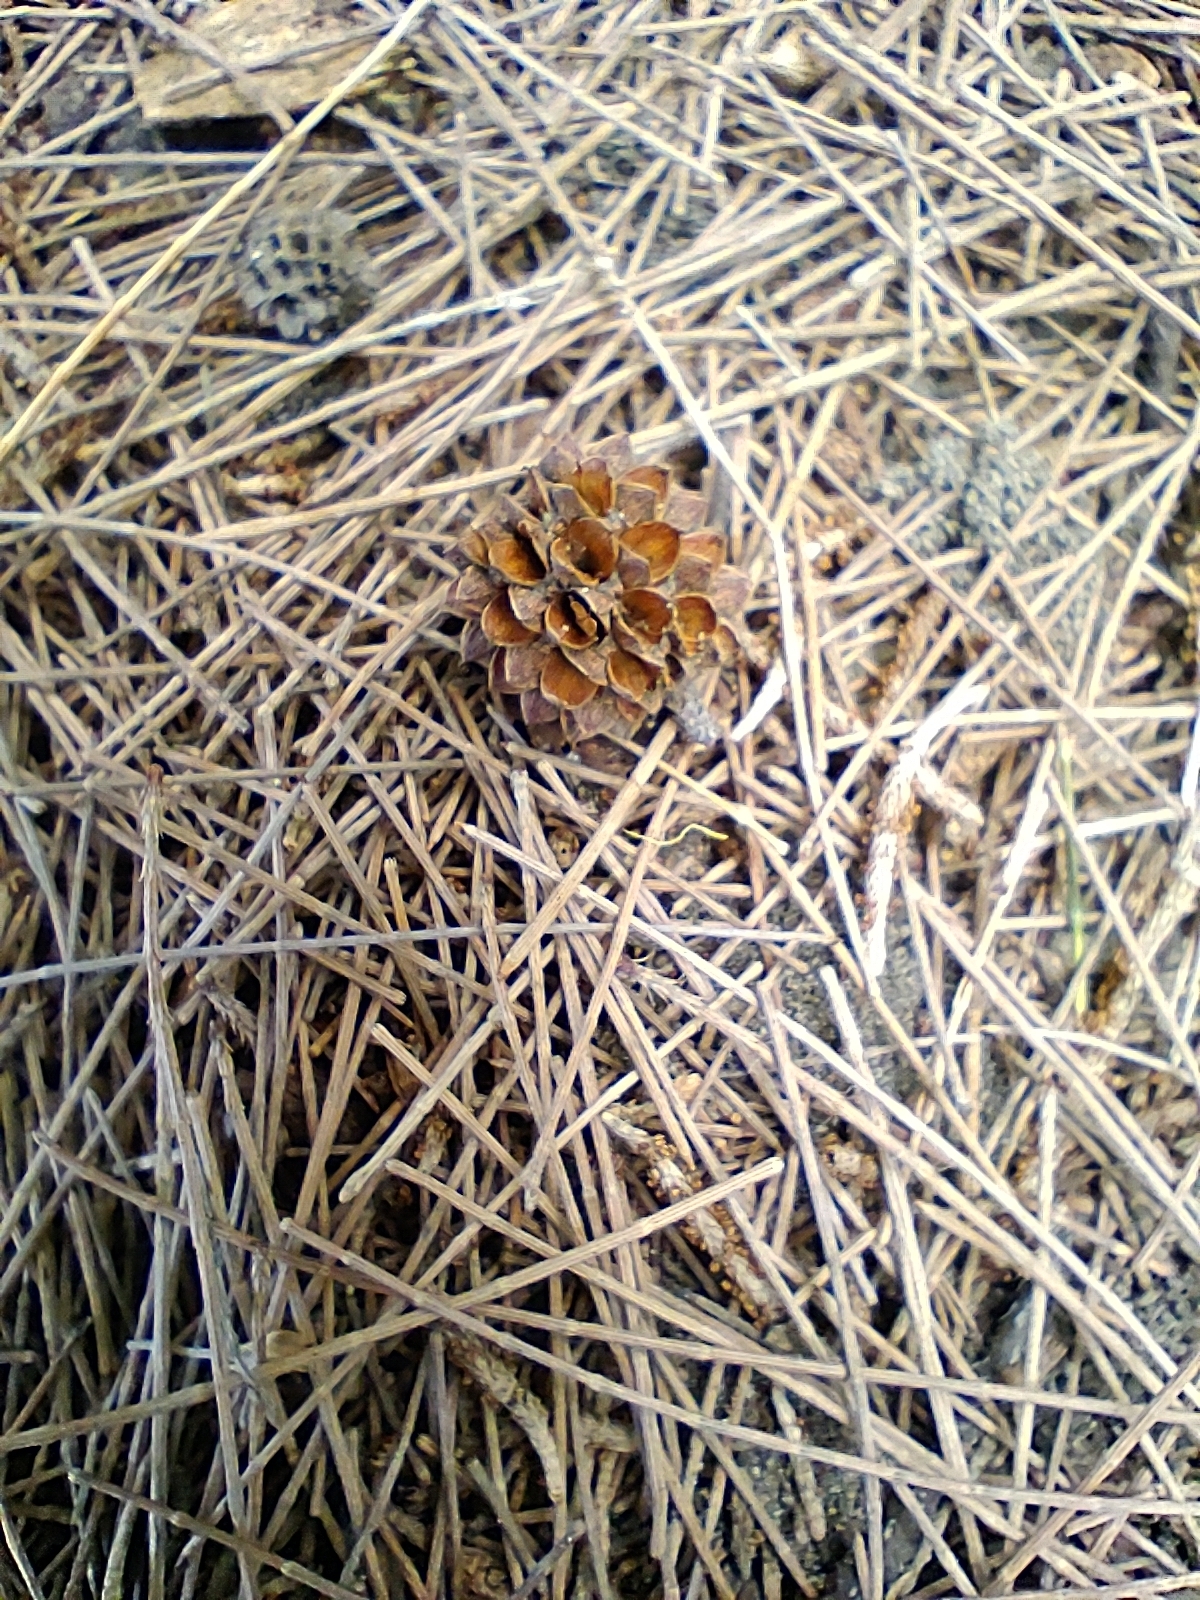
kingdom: Plantae
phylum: Tracheophyta
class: Magnoliopsida
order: Fagales
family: Casuarinaceae
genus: Casuarina
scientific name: Casuarina equisetifolia
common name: Beach sheoak
